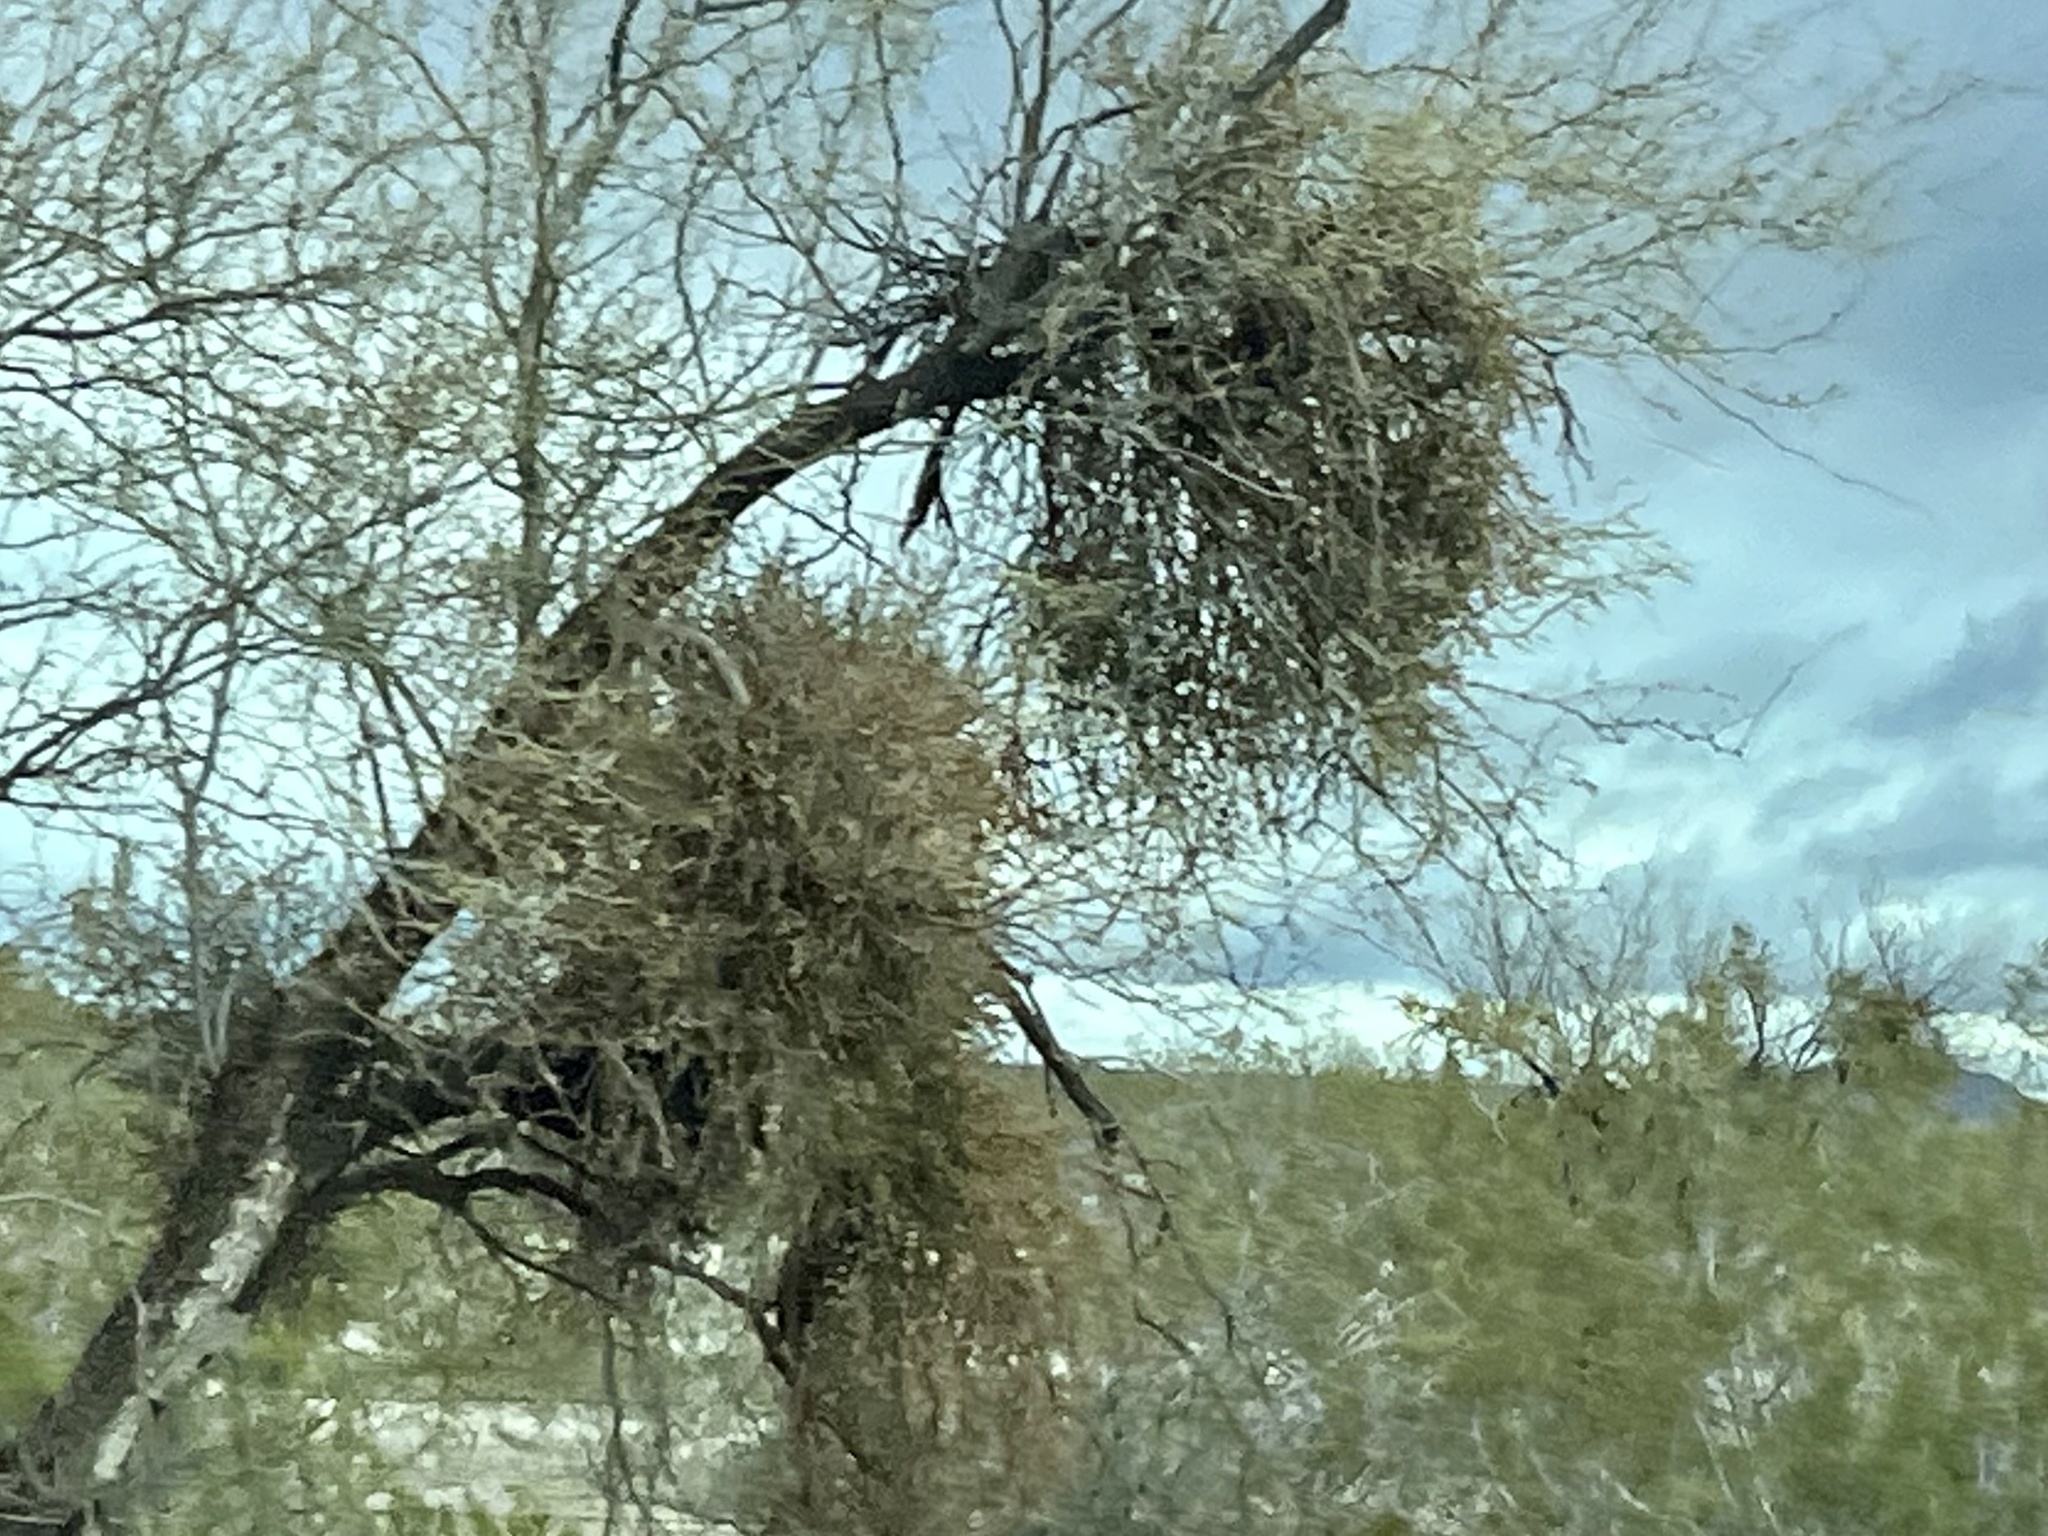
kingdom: Plantae
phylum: Tracheophyta
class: Magnoliopsida
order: Santalales
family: Viscaceae
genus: Phoradendron
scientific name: Phoradendron californicum
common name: Acacia mistletoe
